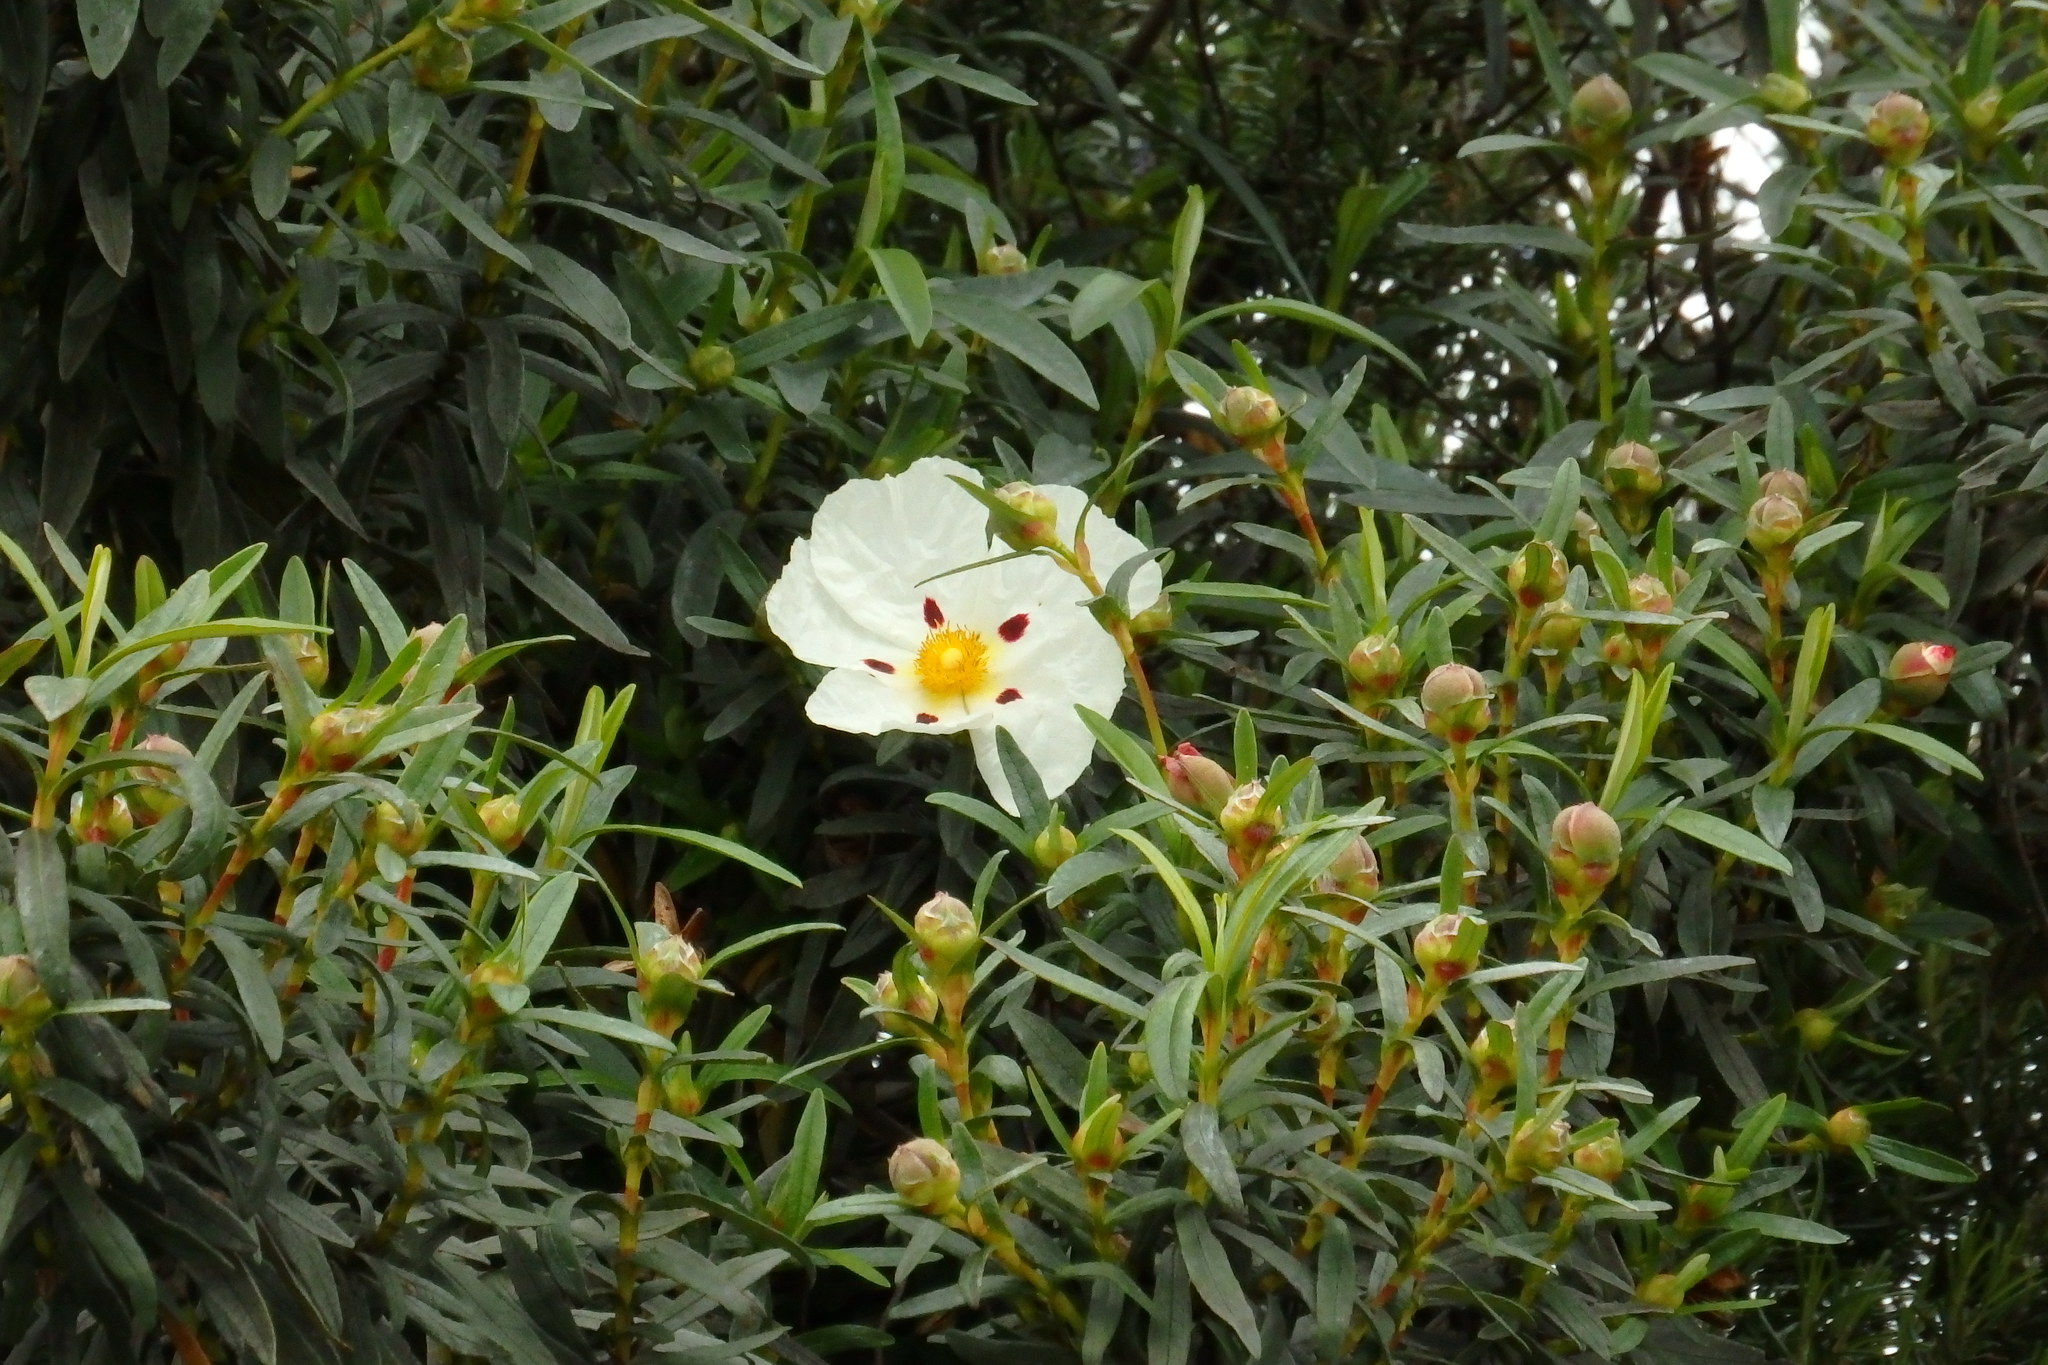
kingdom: Plantae
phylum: Tracheophyta
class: Magnoliopsida
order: Malvales
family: Cistaceae
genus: Cistus
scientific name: Cistus ladanifer
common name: Common gum cistus
